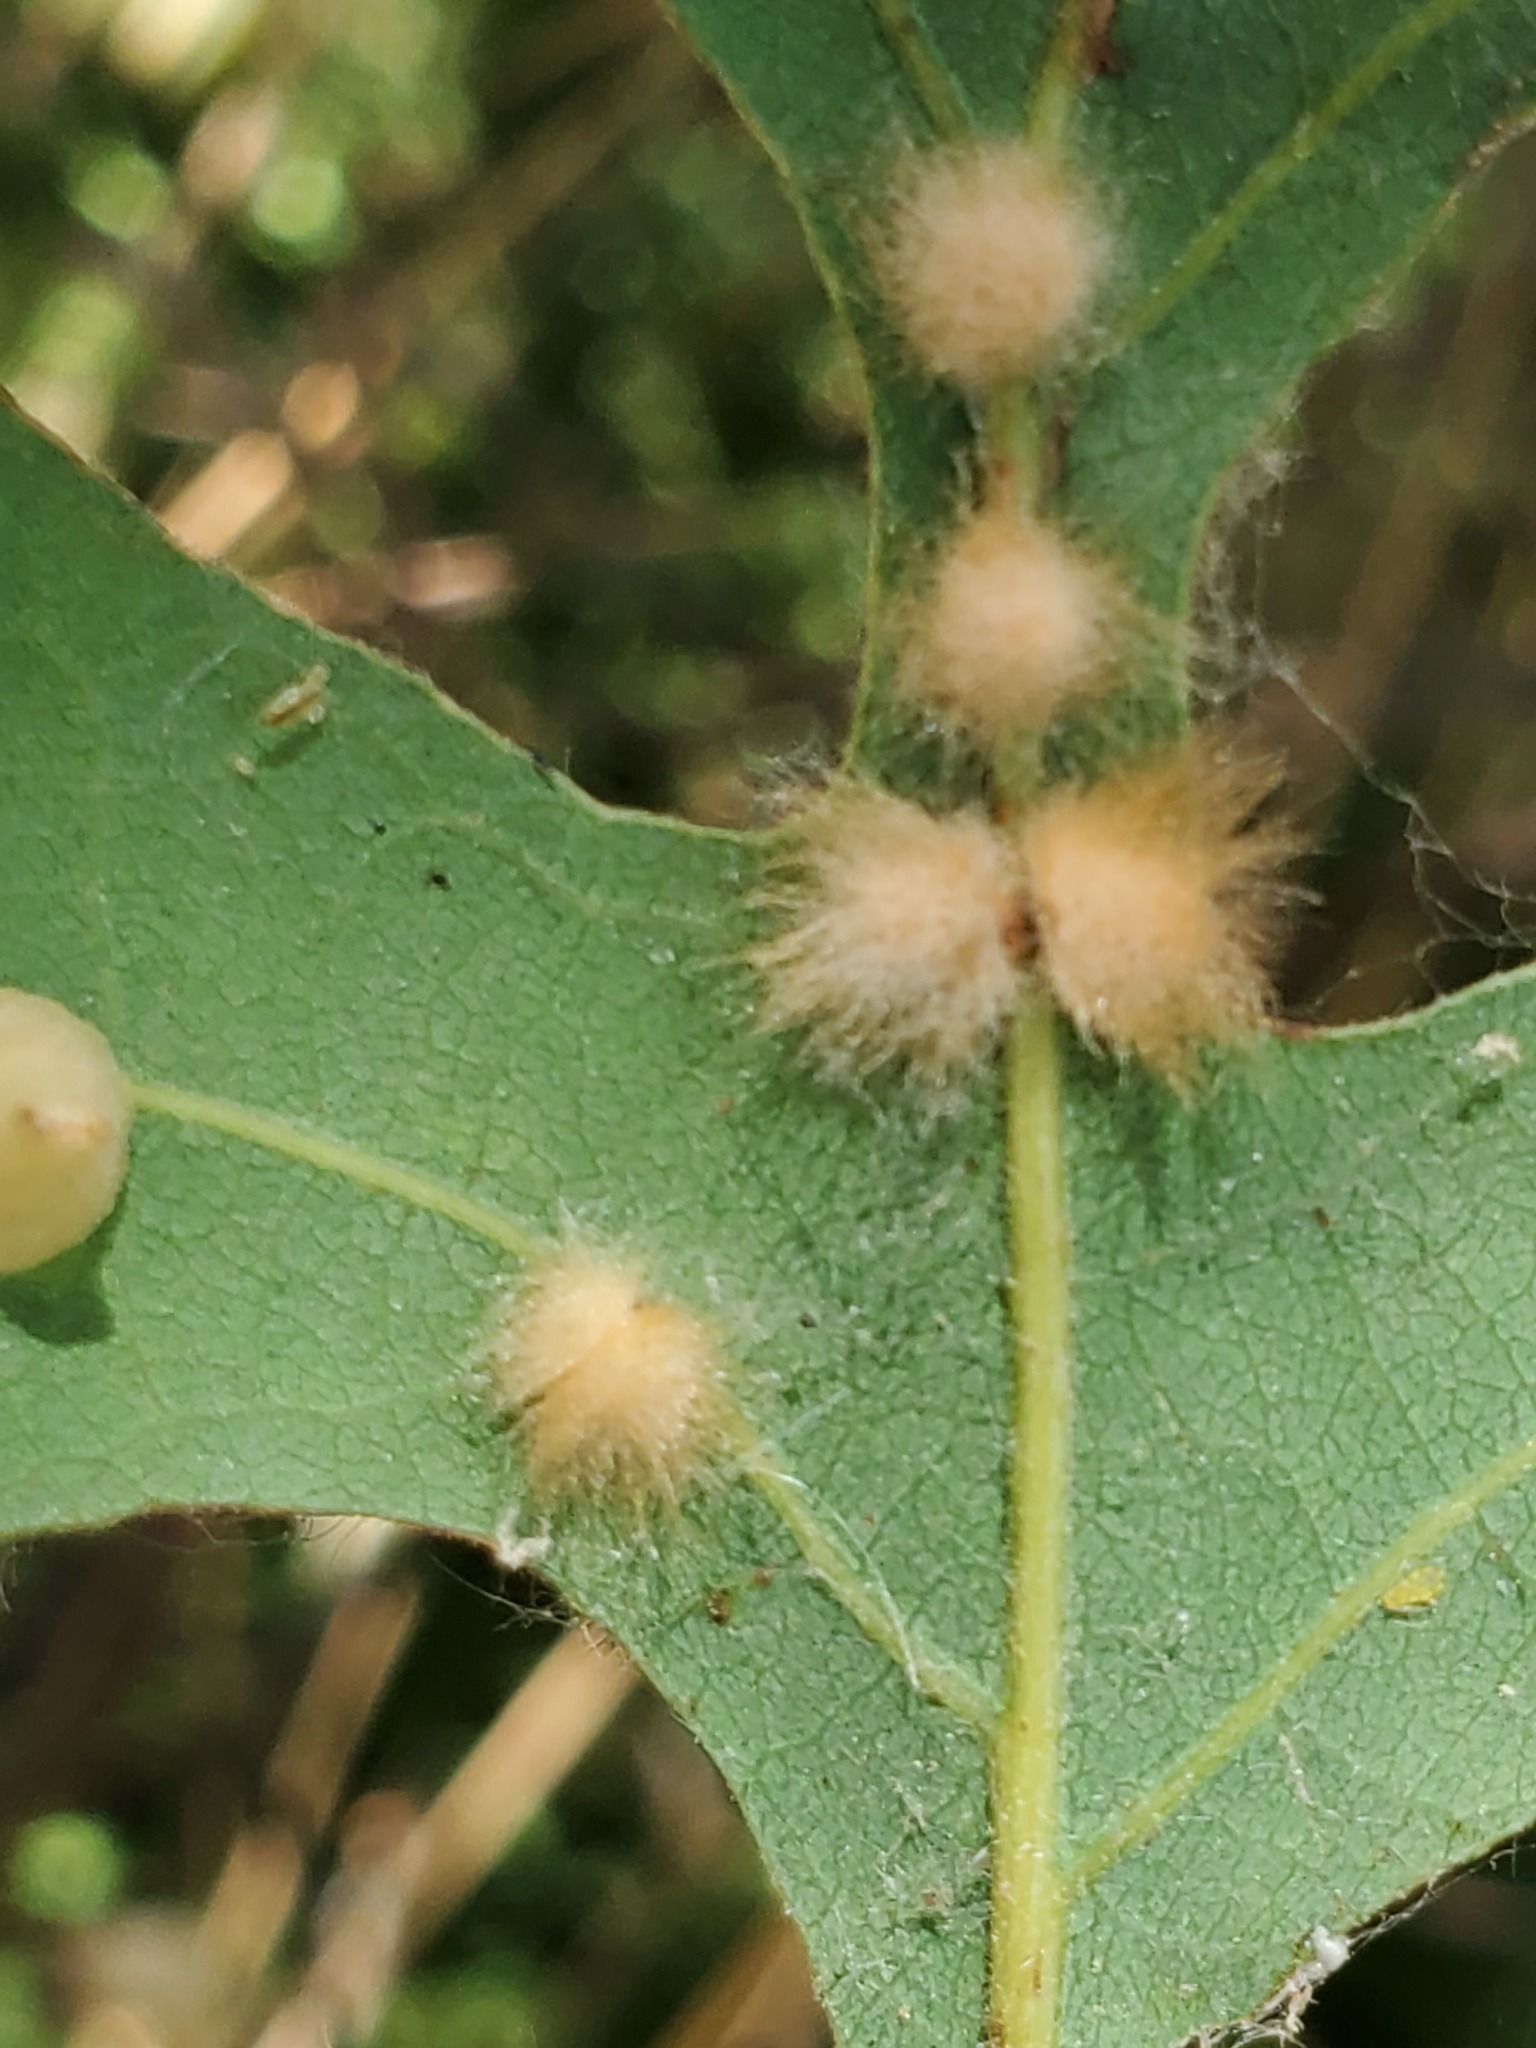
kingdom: Animalia
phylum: Arthropoda
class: Insecta
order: Hymenoptera
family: Cynipidae
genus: Andricus
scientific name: Andricus Druon fullawayi
